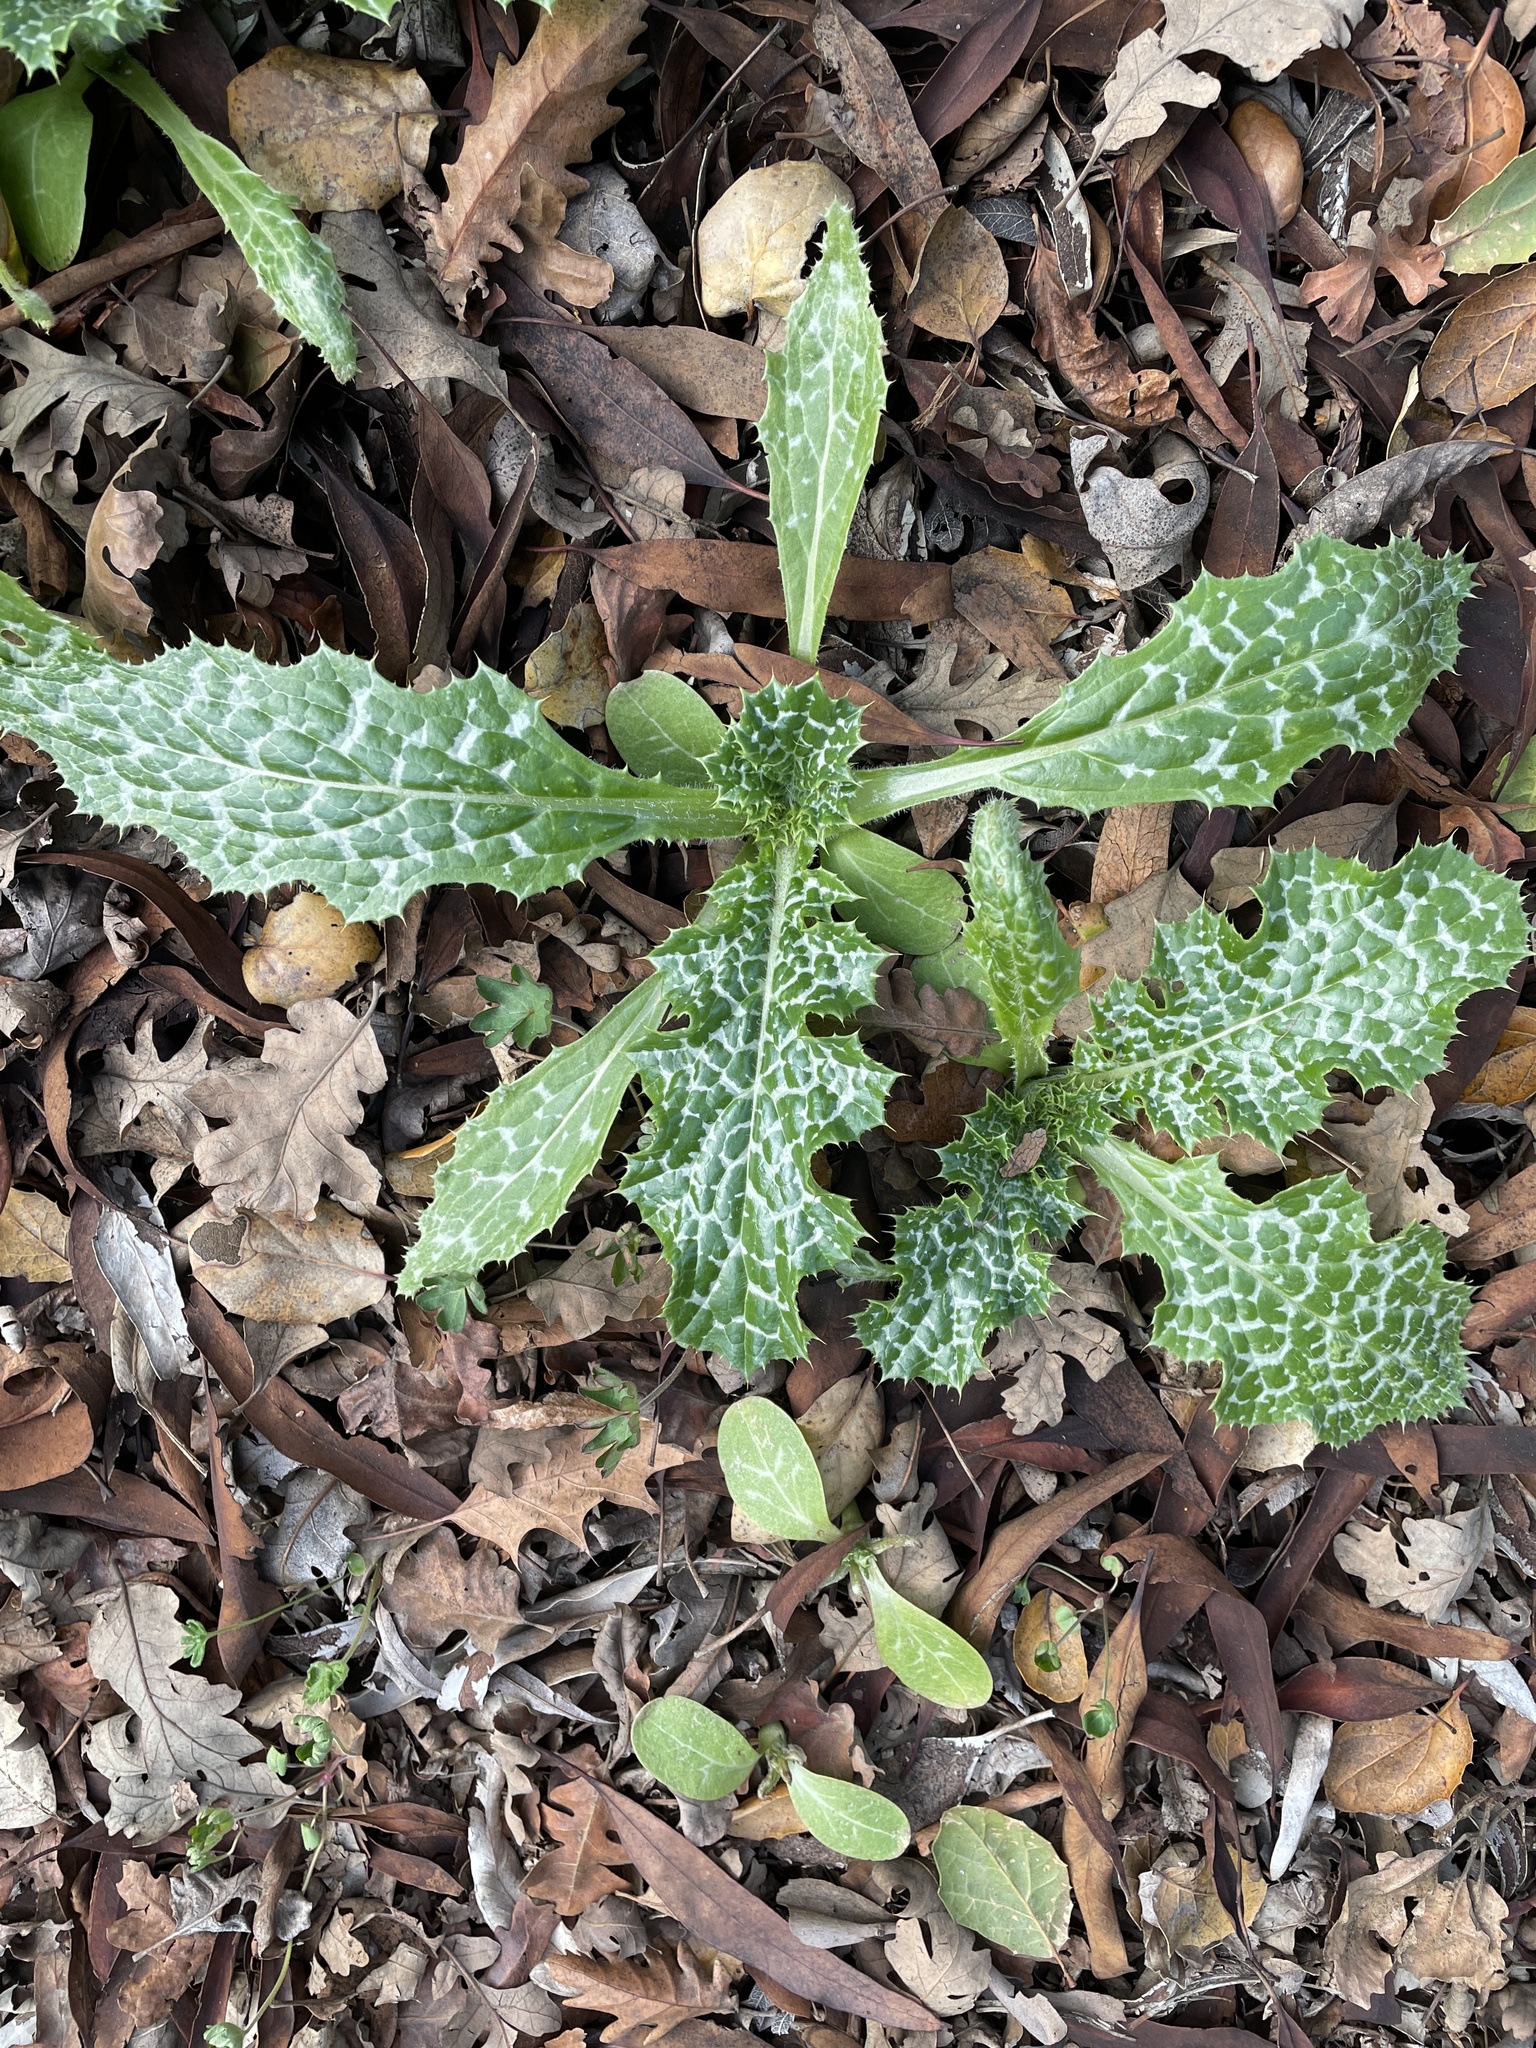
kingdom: Plantae
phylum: Tracheophyta
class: Magnoliopsida
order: Asterales
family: Asteraceae
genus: Silybum
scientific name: Silybum marianum
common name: Milk thistle
